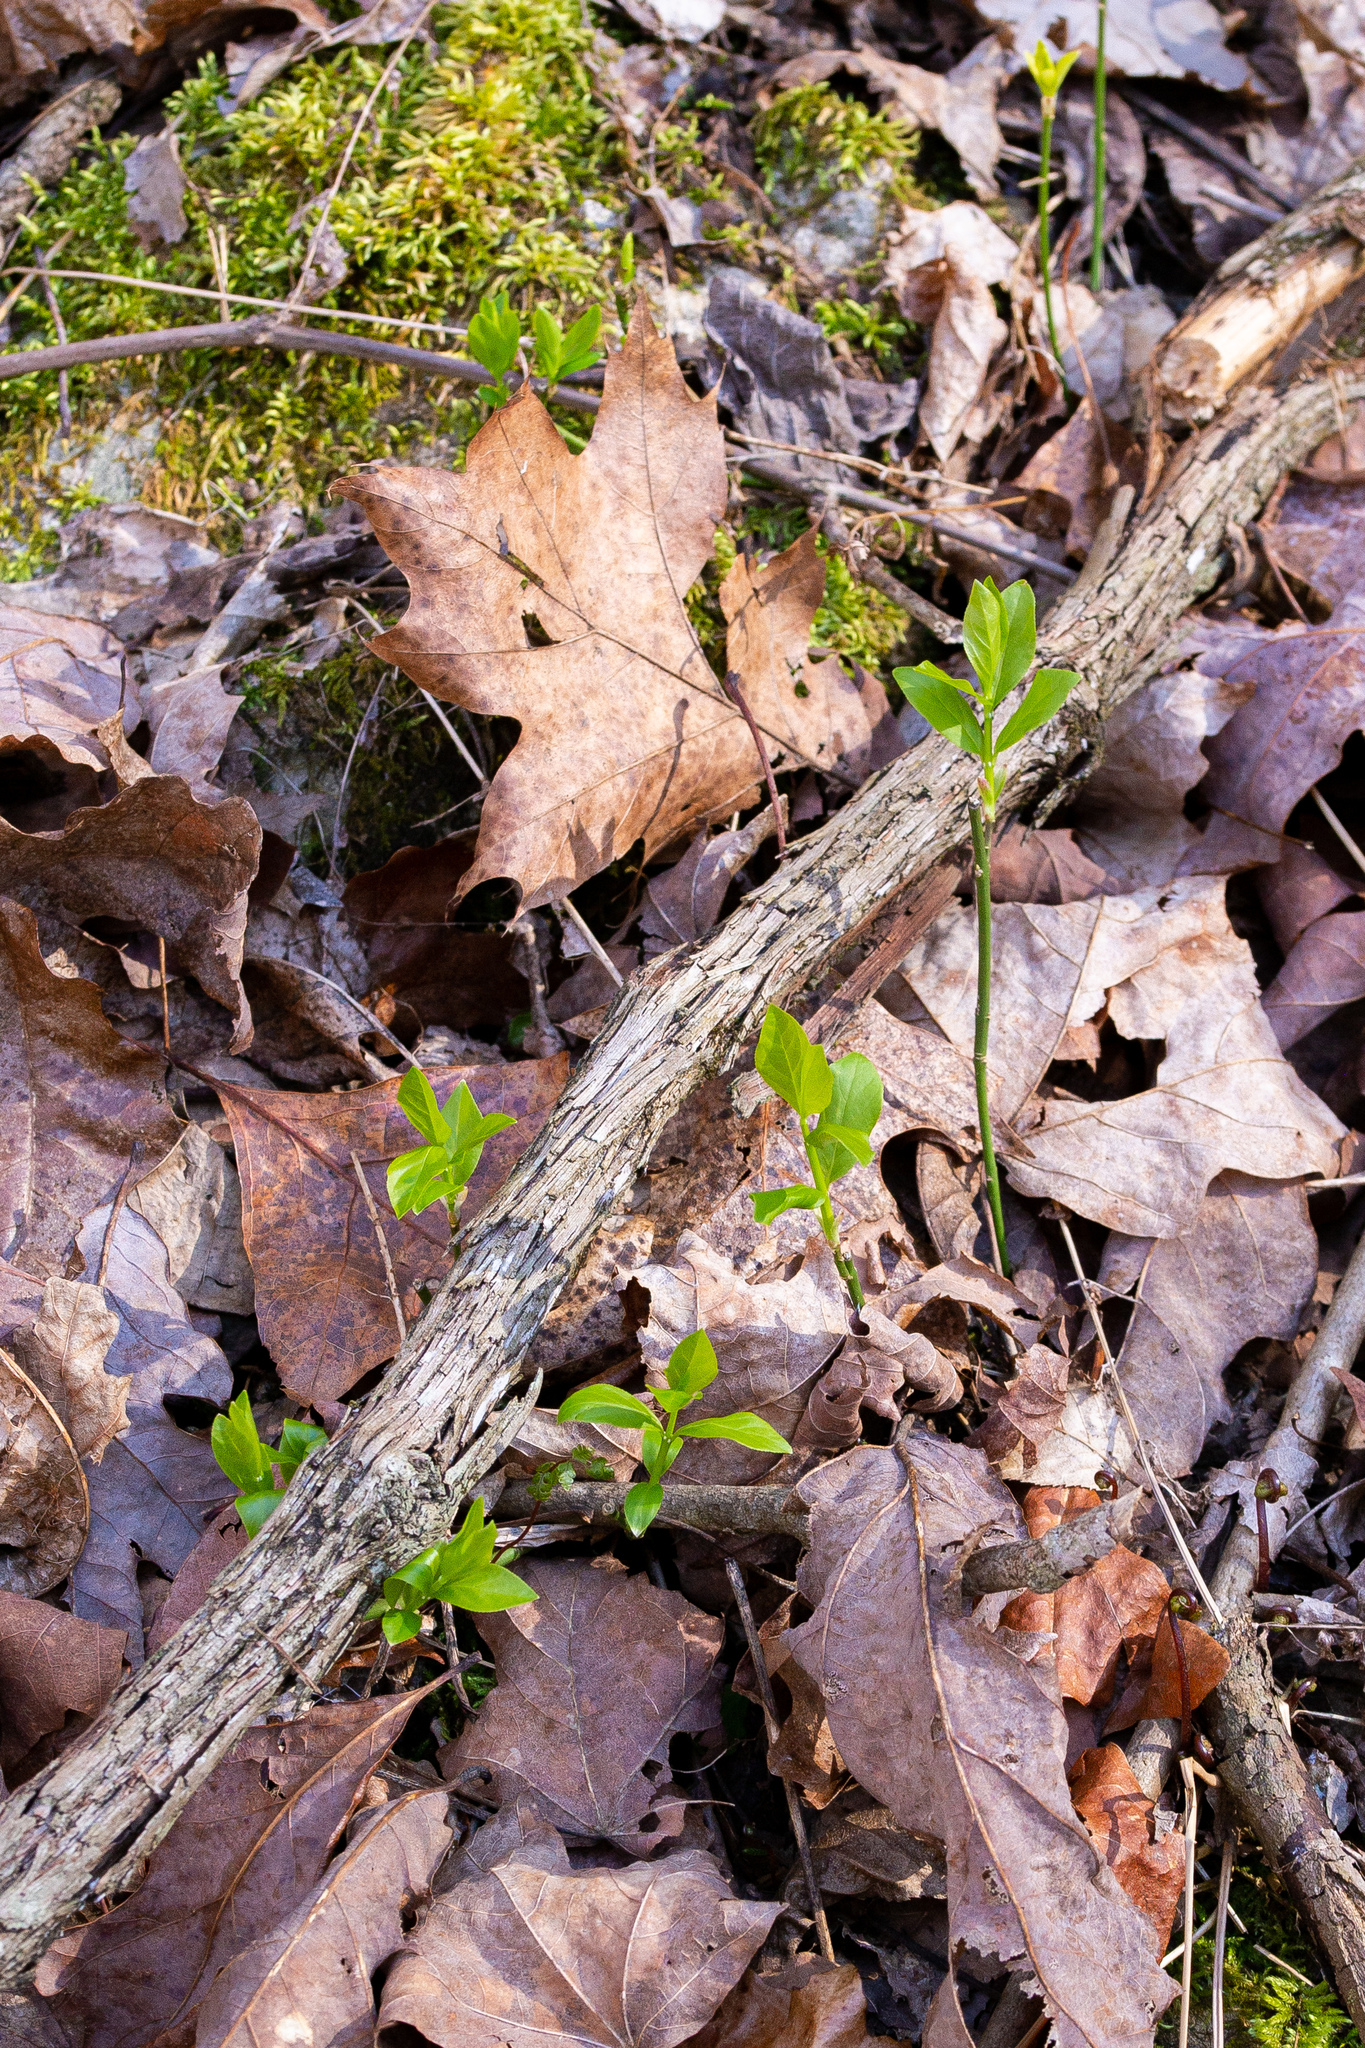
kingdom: Plantae
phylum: Tracheophyta
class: Magnoliopsida
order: Celastrales
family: Celastraceae
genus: Euonymus
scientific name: Euonymus obovatus
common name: Running strawberry-bush
